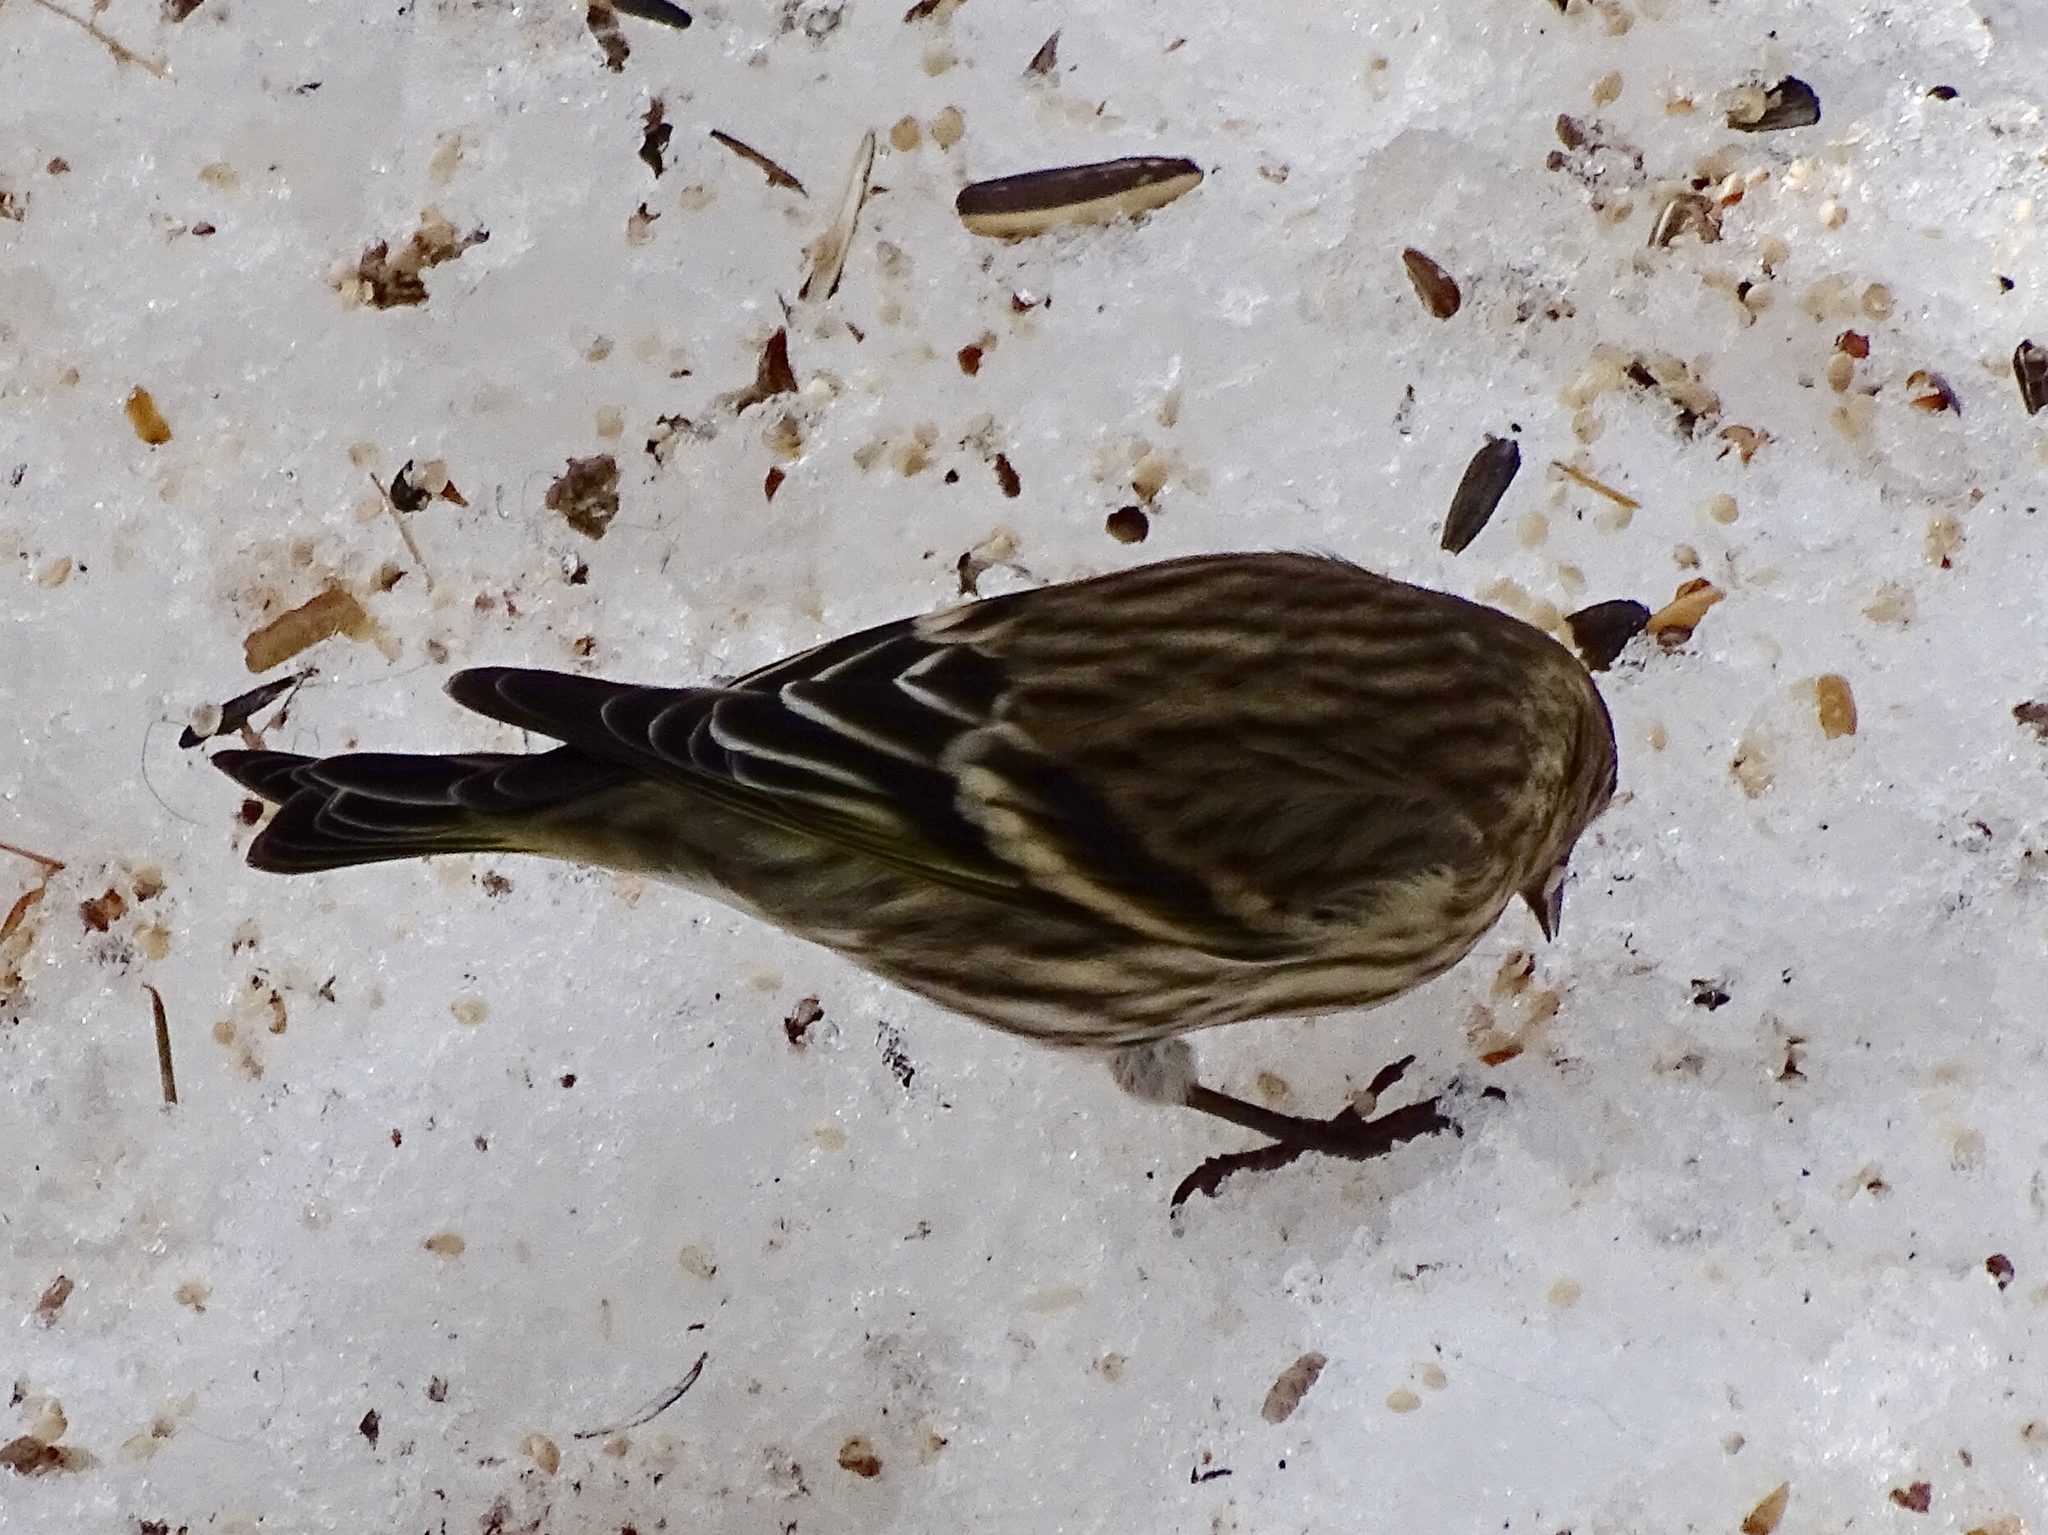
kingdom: Animalia
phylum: Chordata
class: Aves
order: Passeriformes
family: Fringillidae
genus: Spinus
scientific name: Spinus pinus
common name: Pine siskin
